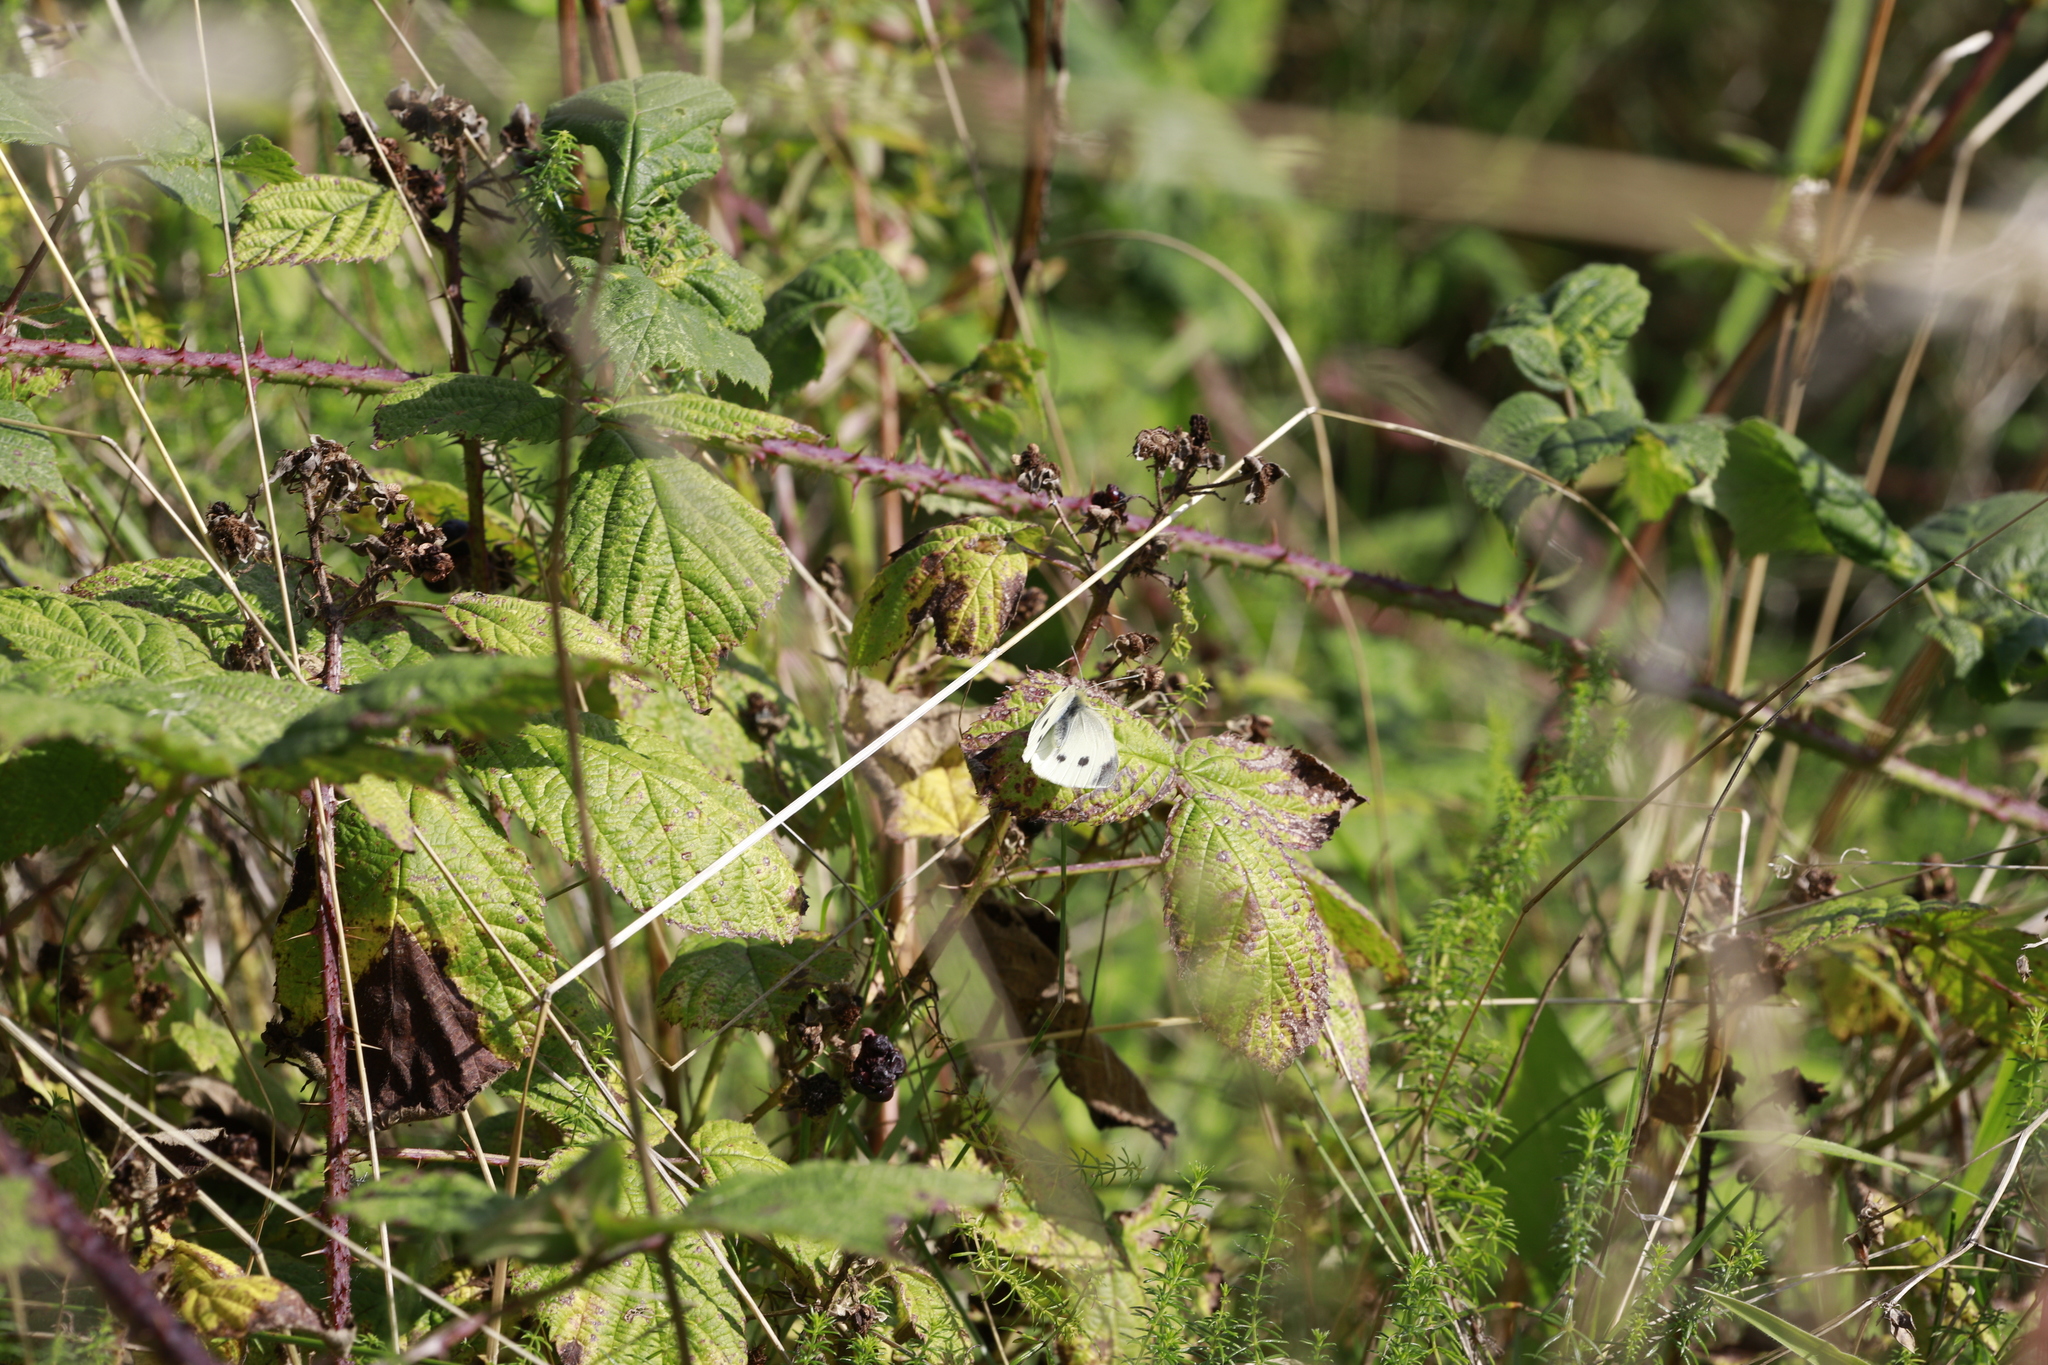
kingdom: Animalia
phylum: Arthropoda
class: Insecta
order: Lepidoptera
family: Pieridae
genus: Pieris
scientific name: Pieris rapae
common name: Small white
